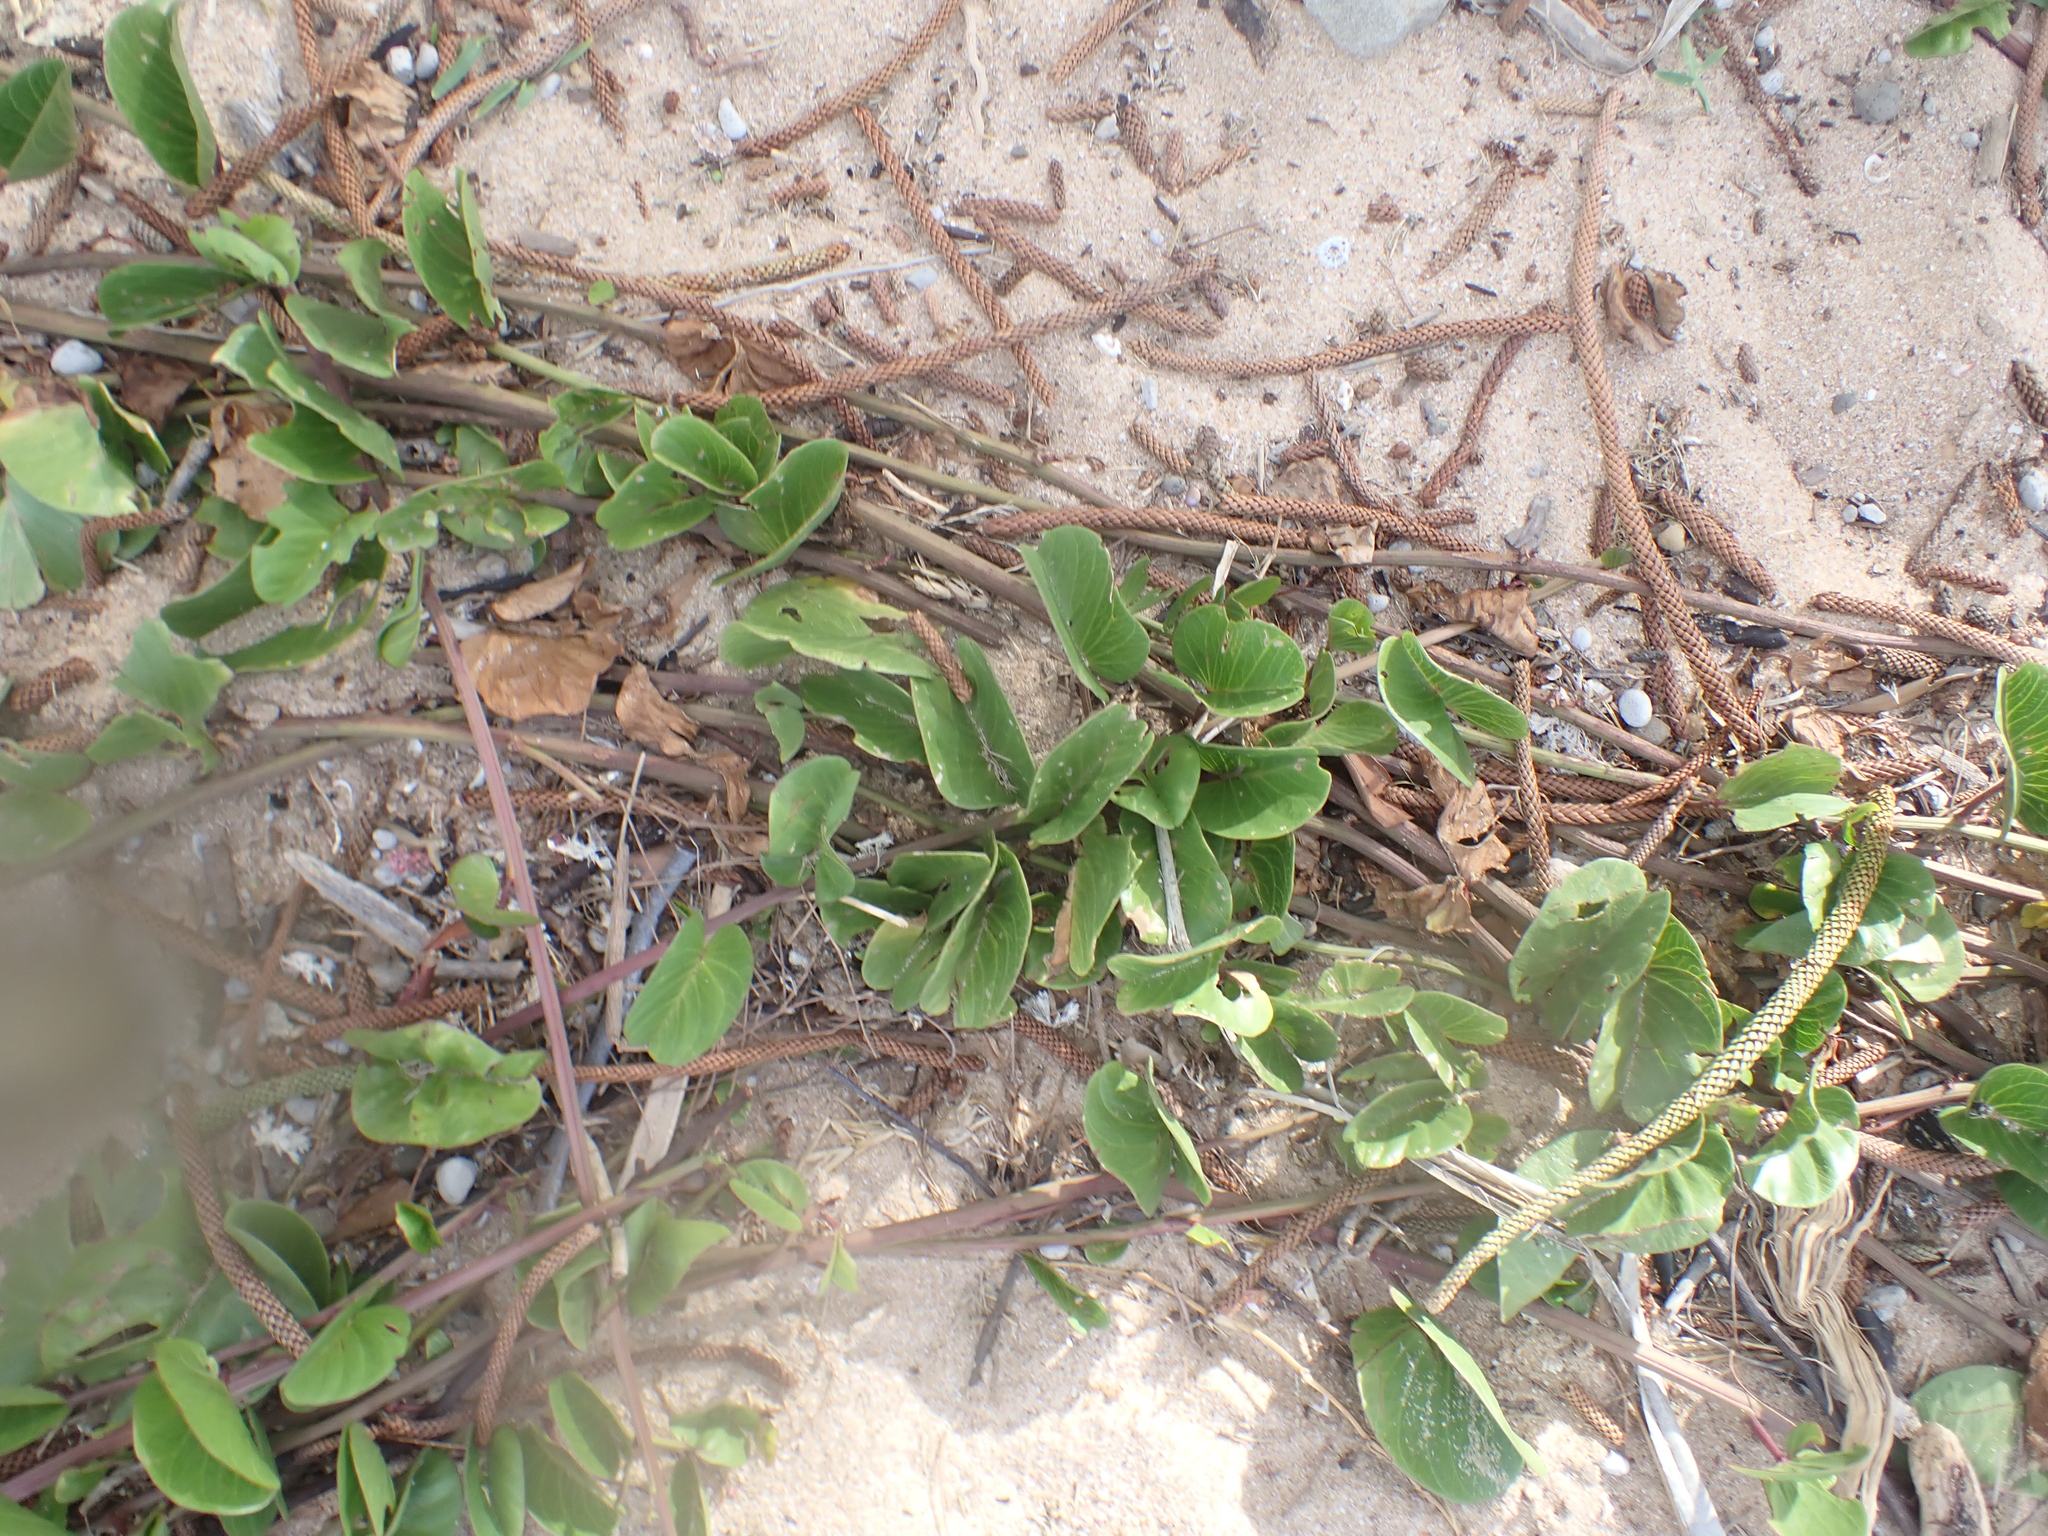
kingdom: Plantae
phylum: Tracheophyta
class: Magnoliopsida
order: Solanales
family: Convolvulaceae
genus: Ipomoea
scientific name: Ipomoea pes-caprae
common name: Beach morning glory
